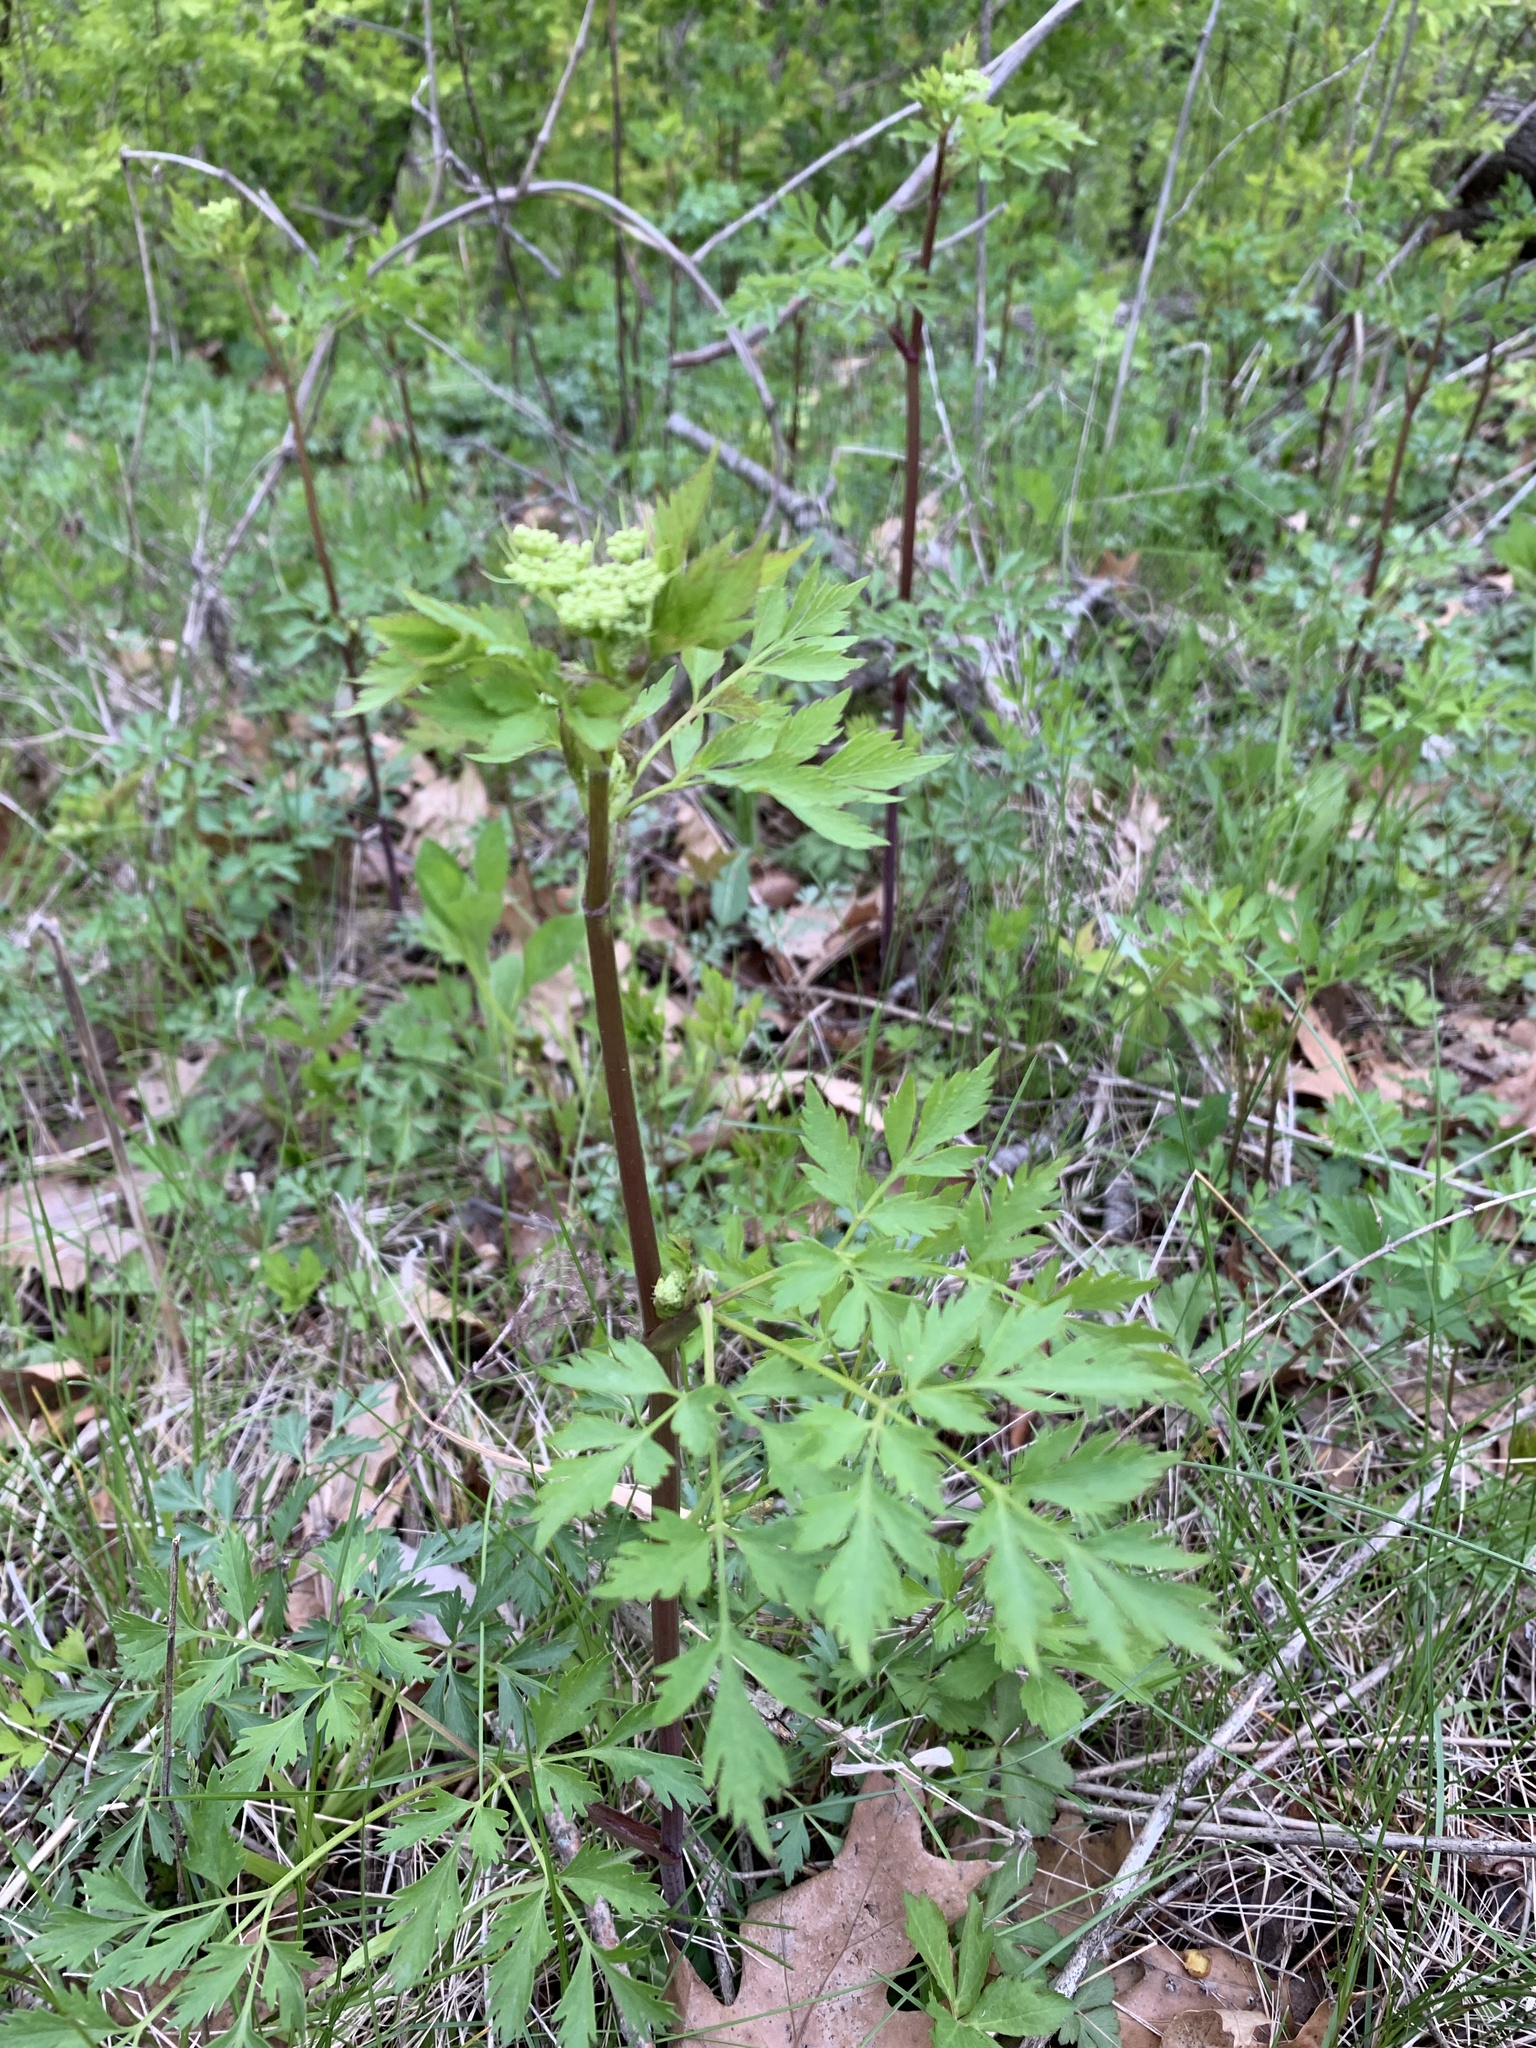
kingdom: Plantae
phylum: Tracheophyta
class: Magnoliopsida
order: Apiales
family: Apiaceae
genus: Thaspium
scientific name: Thaspium barbinode
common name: Bearded meadow-parsnip
